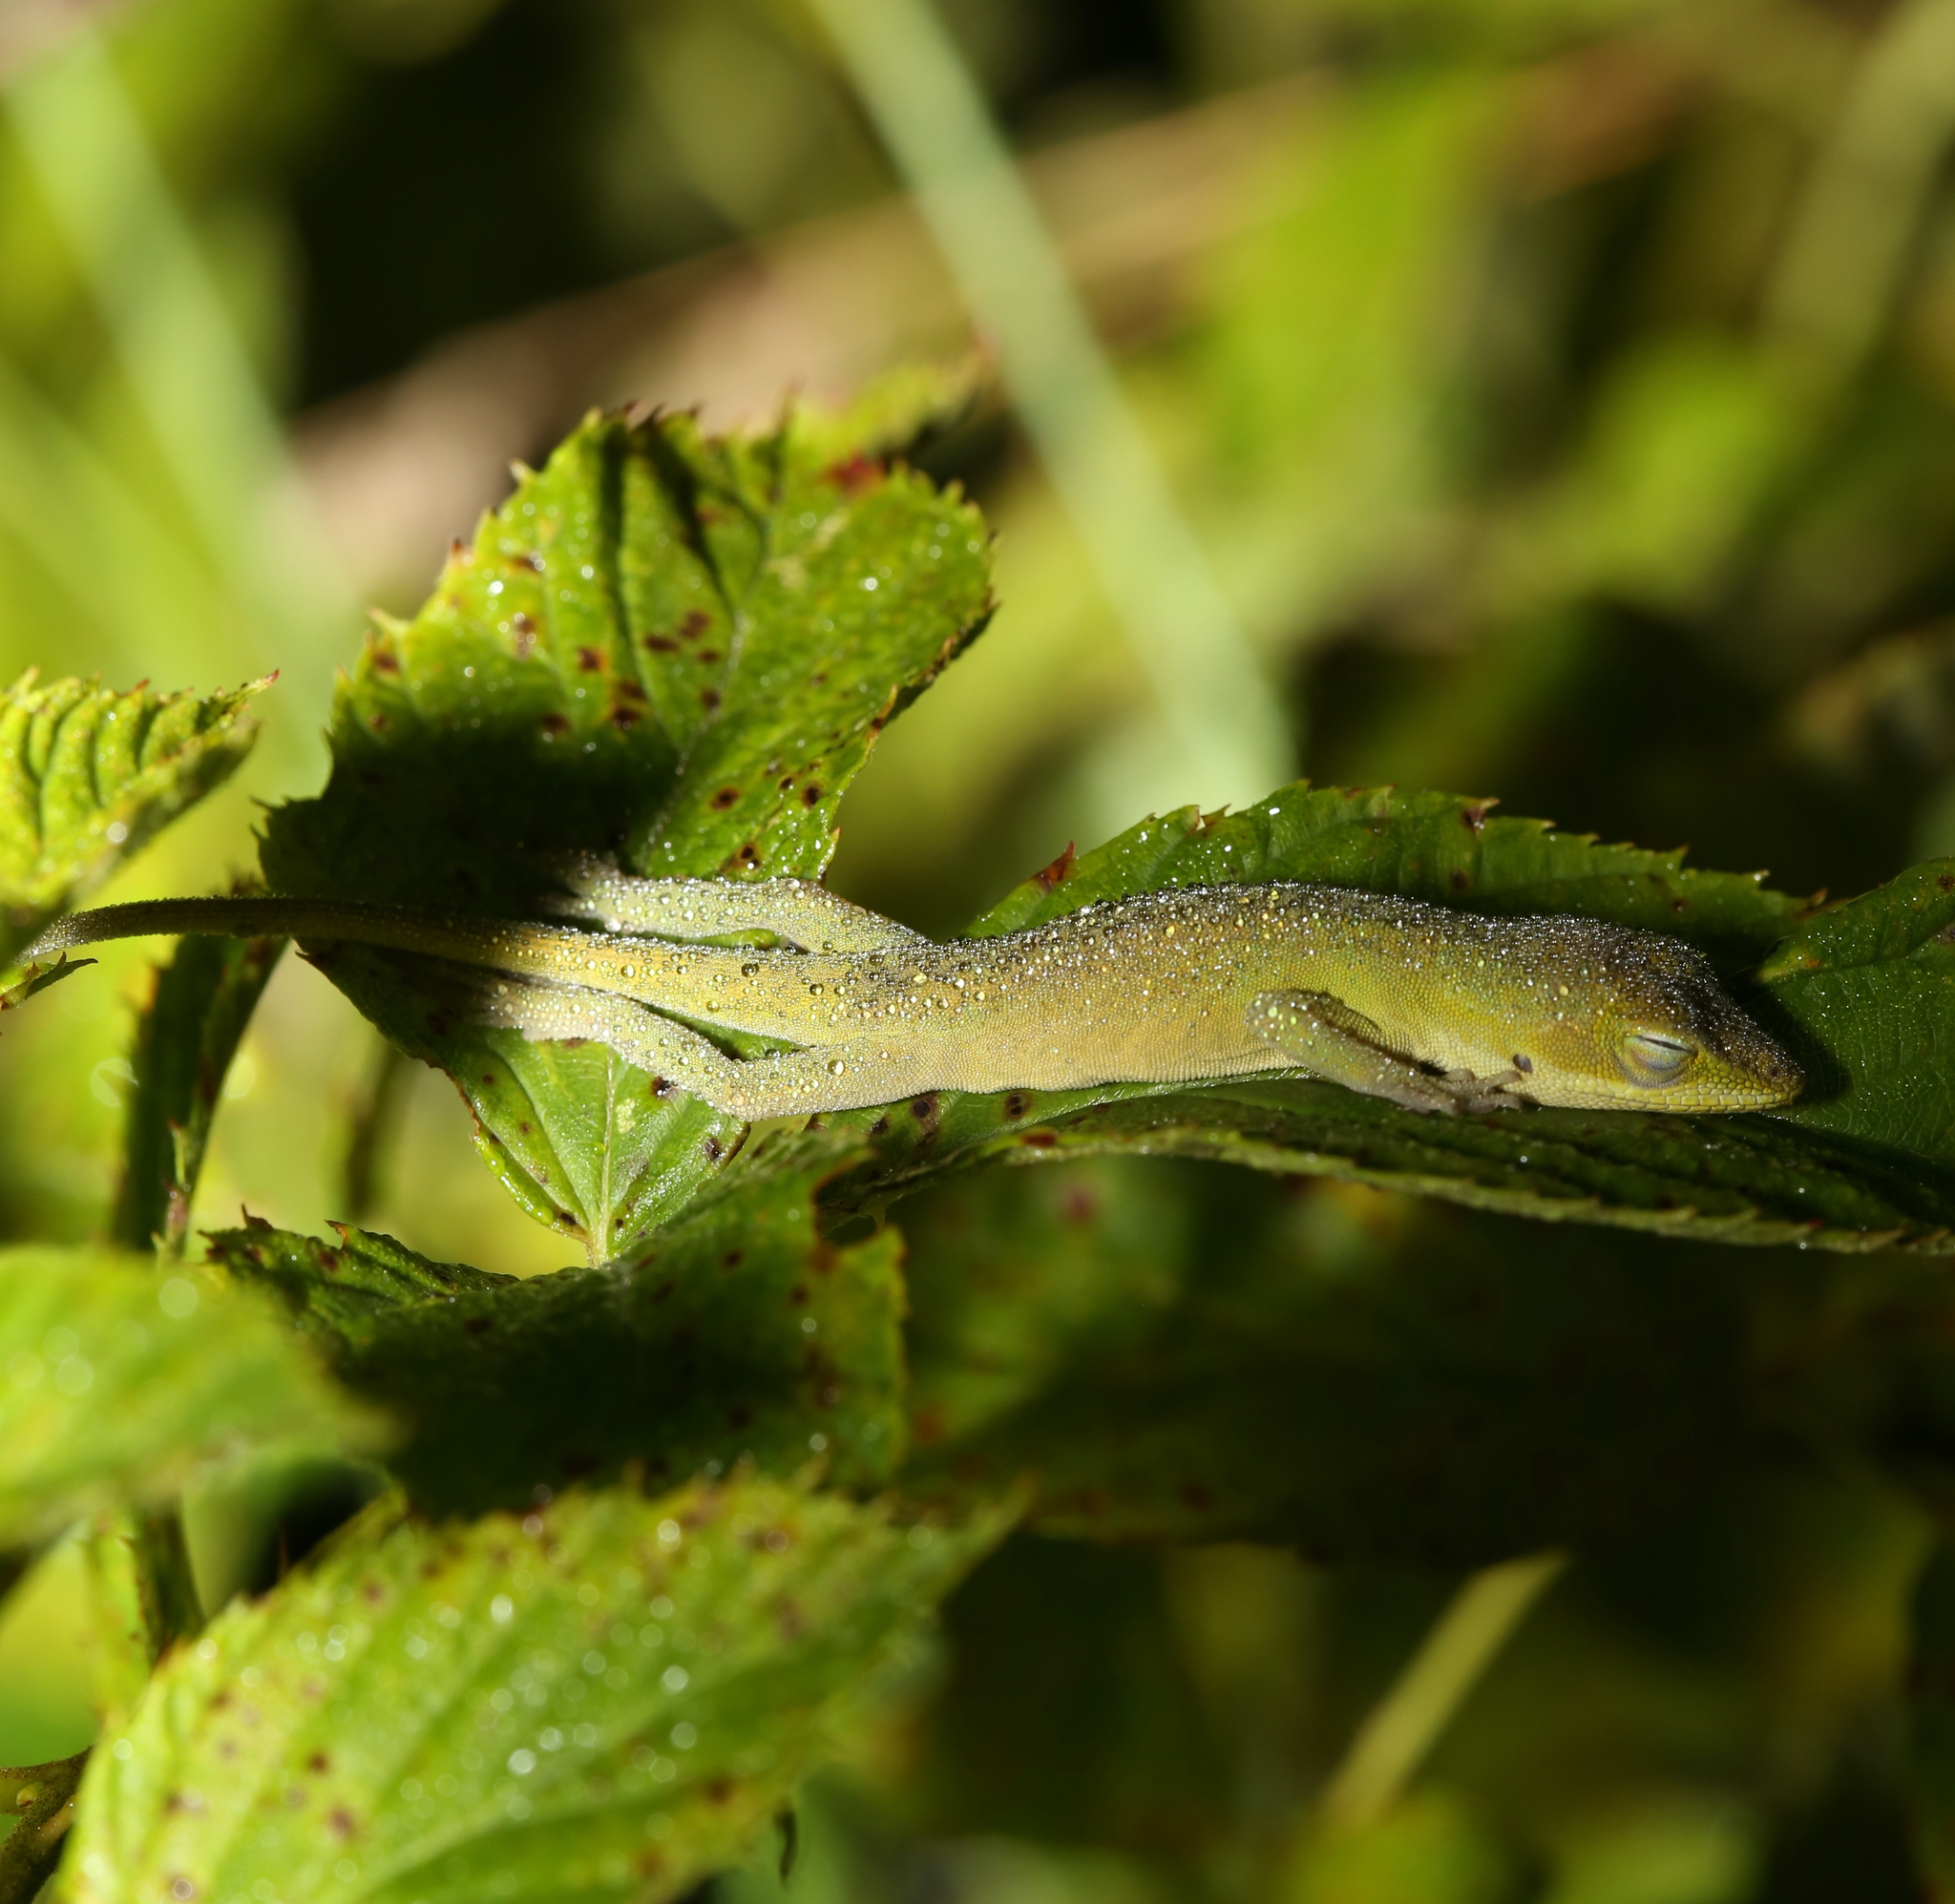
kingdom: Animalia
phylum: Chordata
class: Squamata
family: Dactyloidae
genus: Anolis
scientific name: Anolis carolinensis
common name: Green anole
